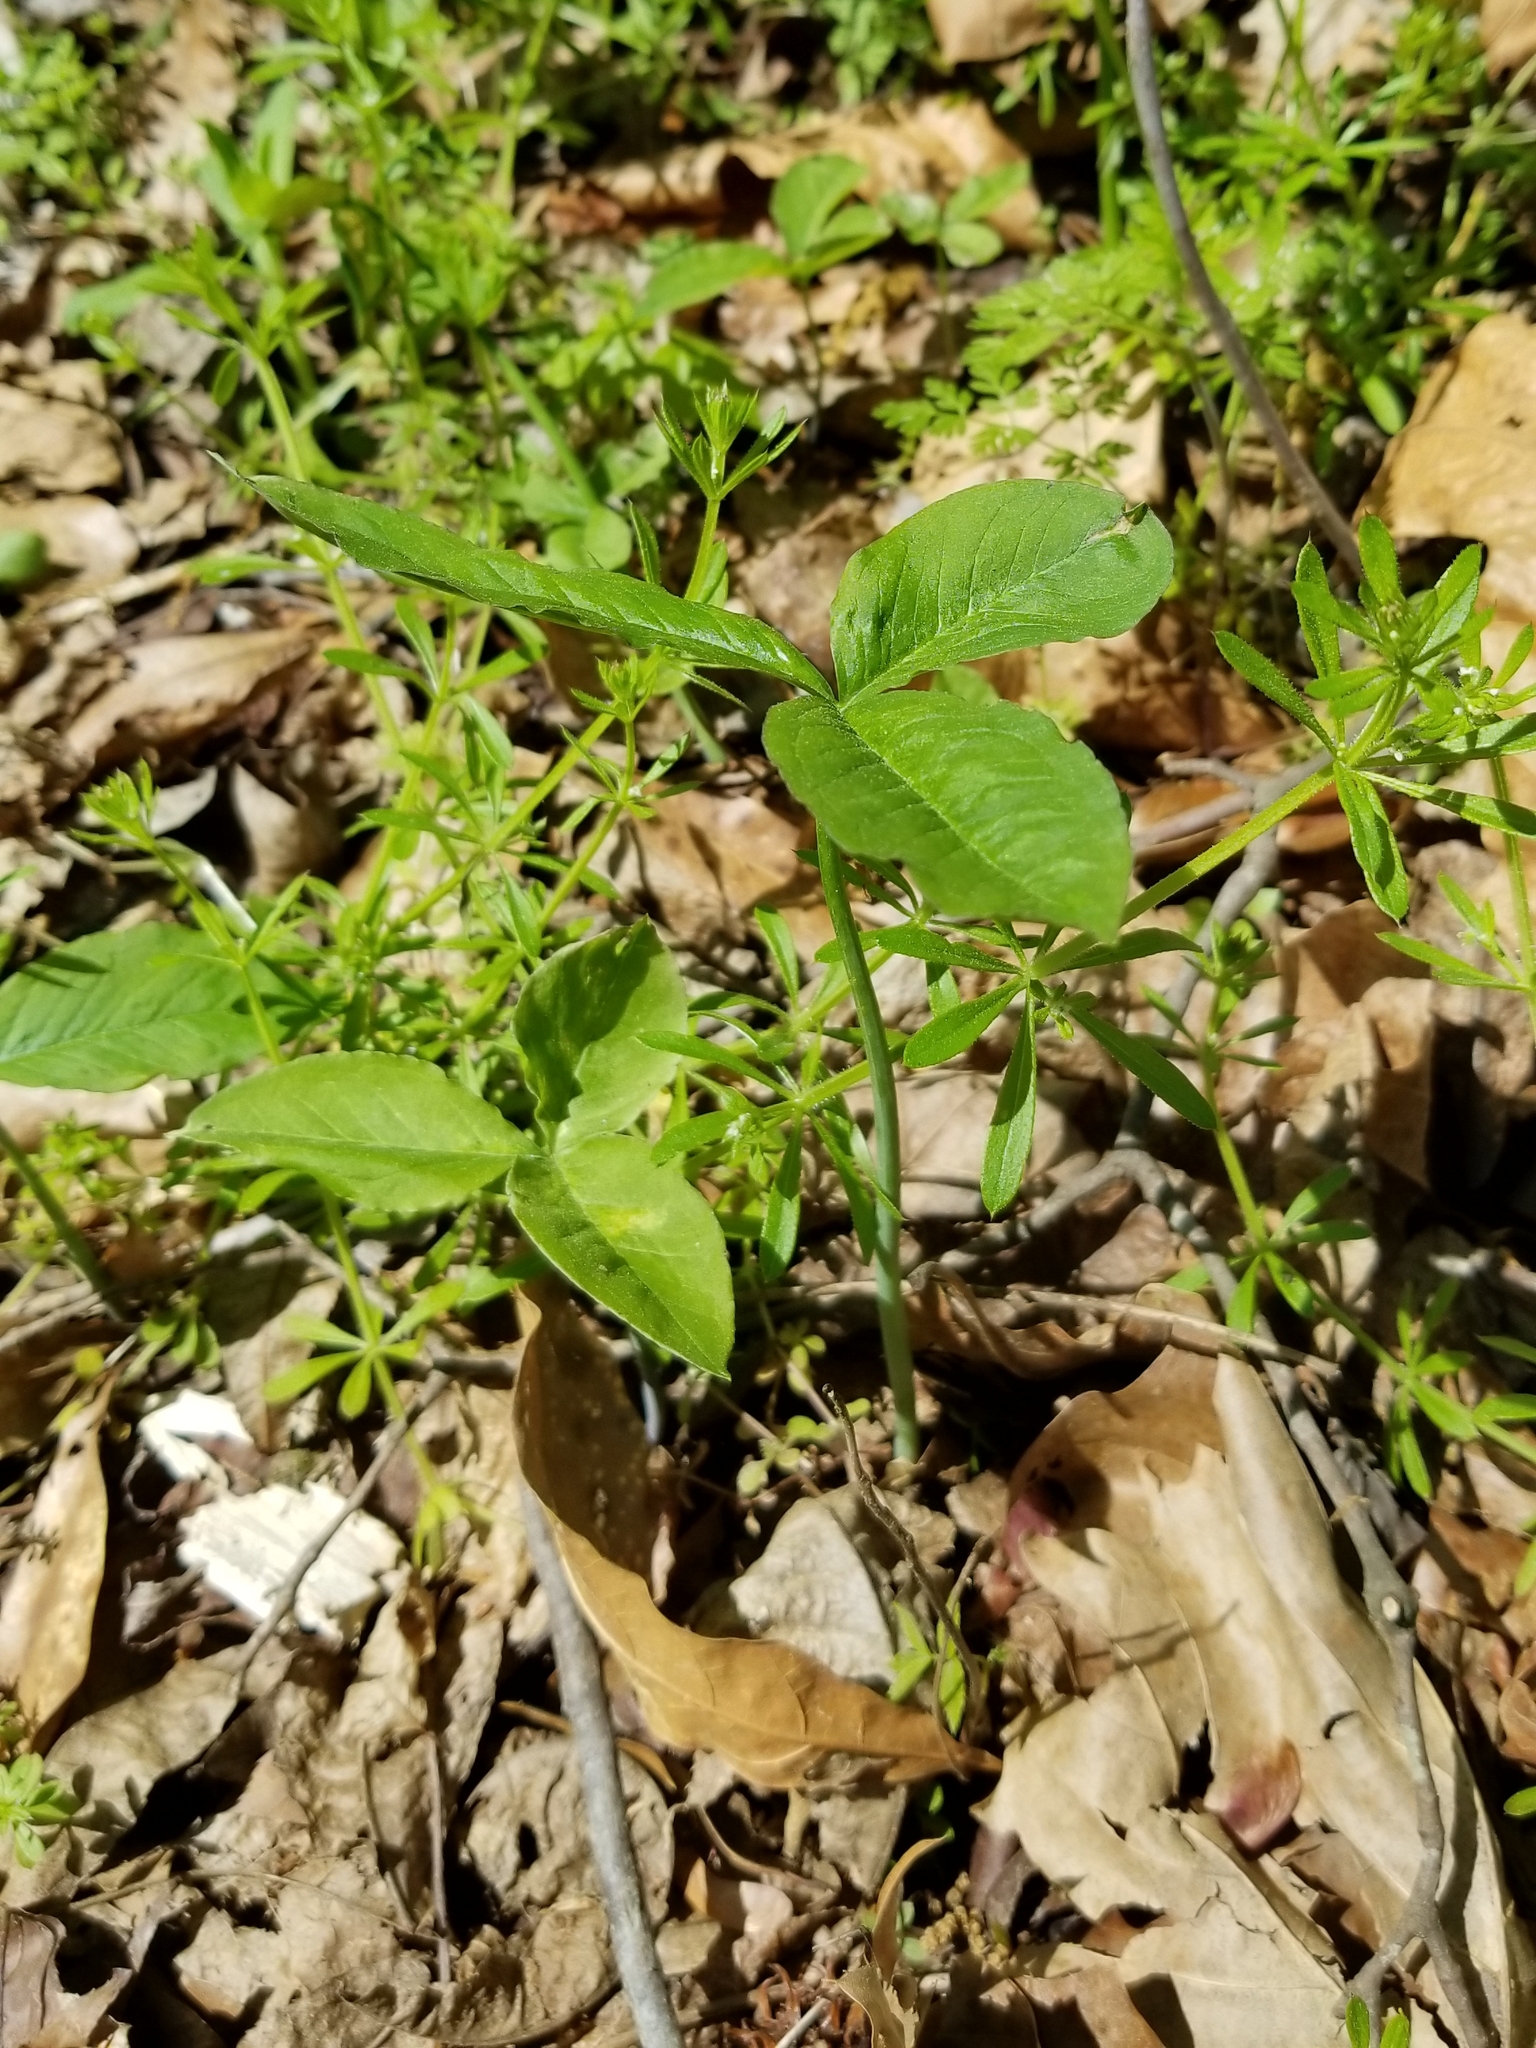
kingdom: Plantae
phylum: Tracheophyta
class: Liliopsida
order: Alismatales
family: Araceae
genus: Arisaema
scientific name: Arisaema dracontium
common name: Dragon-arum
